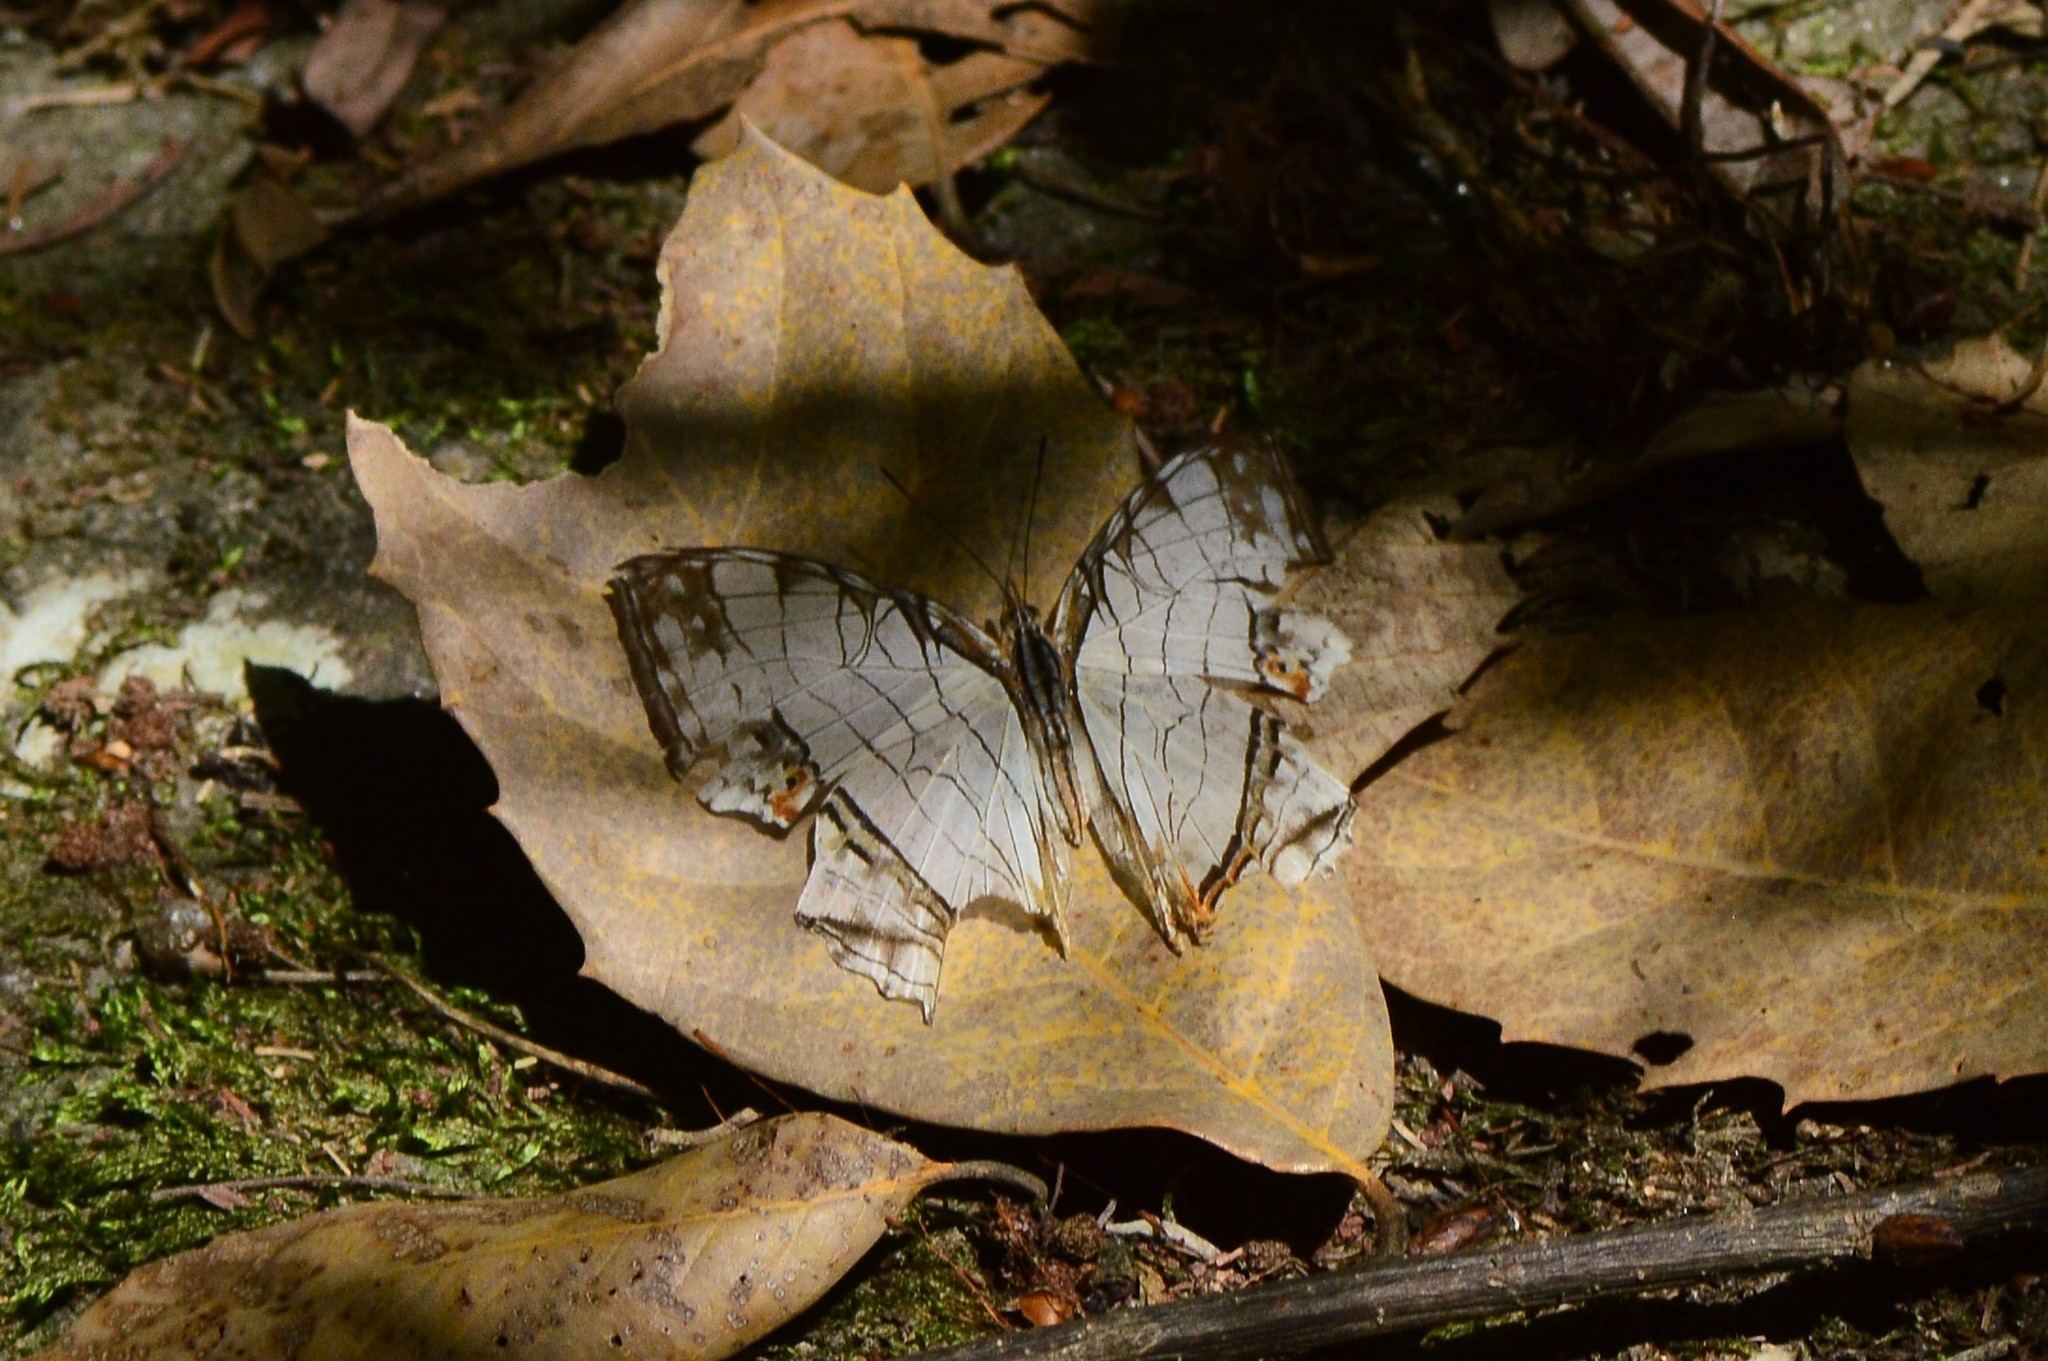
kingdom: Animalia
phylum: Arthropoda
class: Insecta
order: Lepidoptera
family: Nymphalidae
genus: Cyrestis
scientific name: Cyrestis thyodamas
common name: Common mapwing
